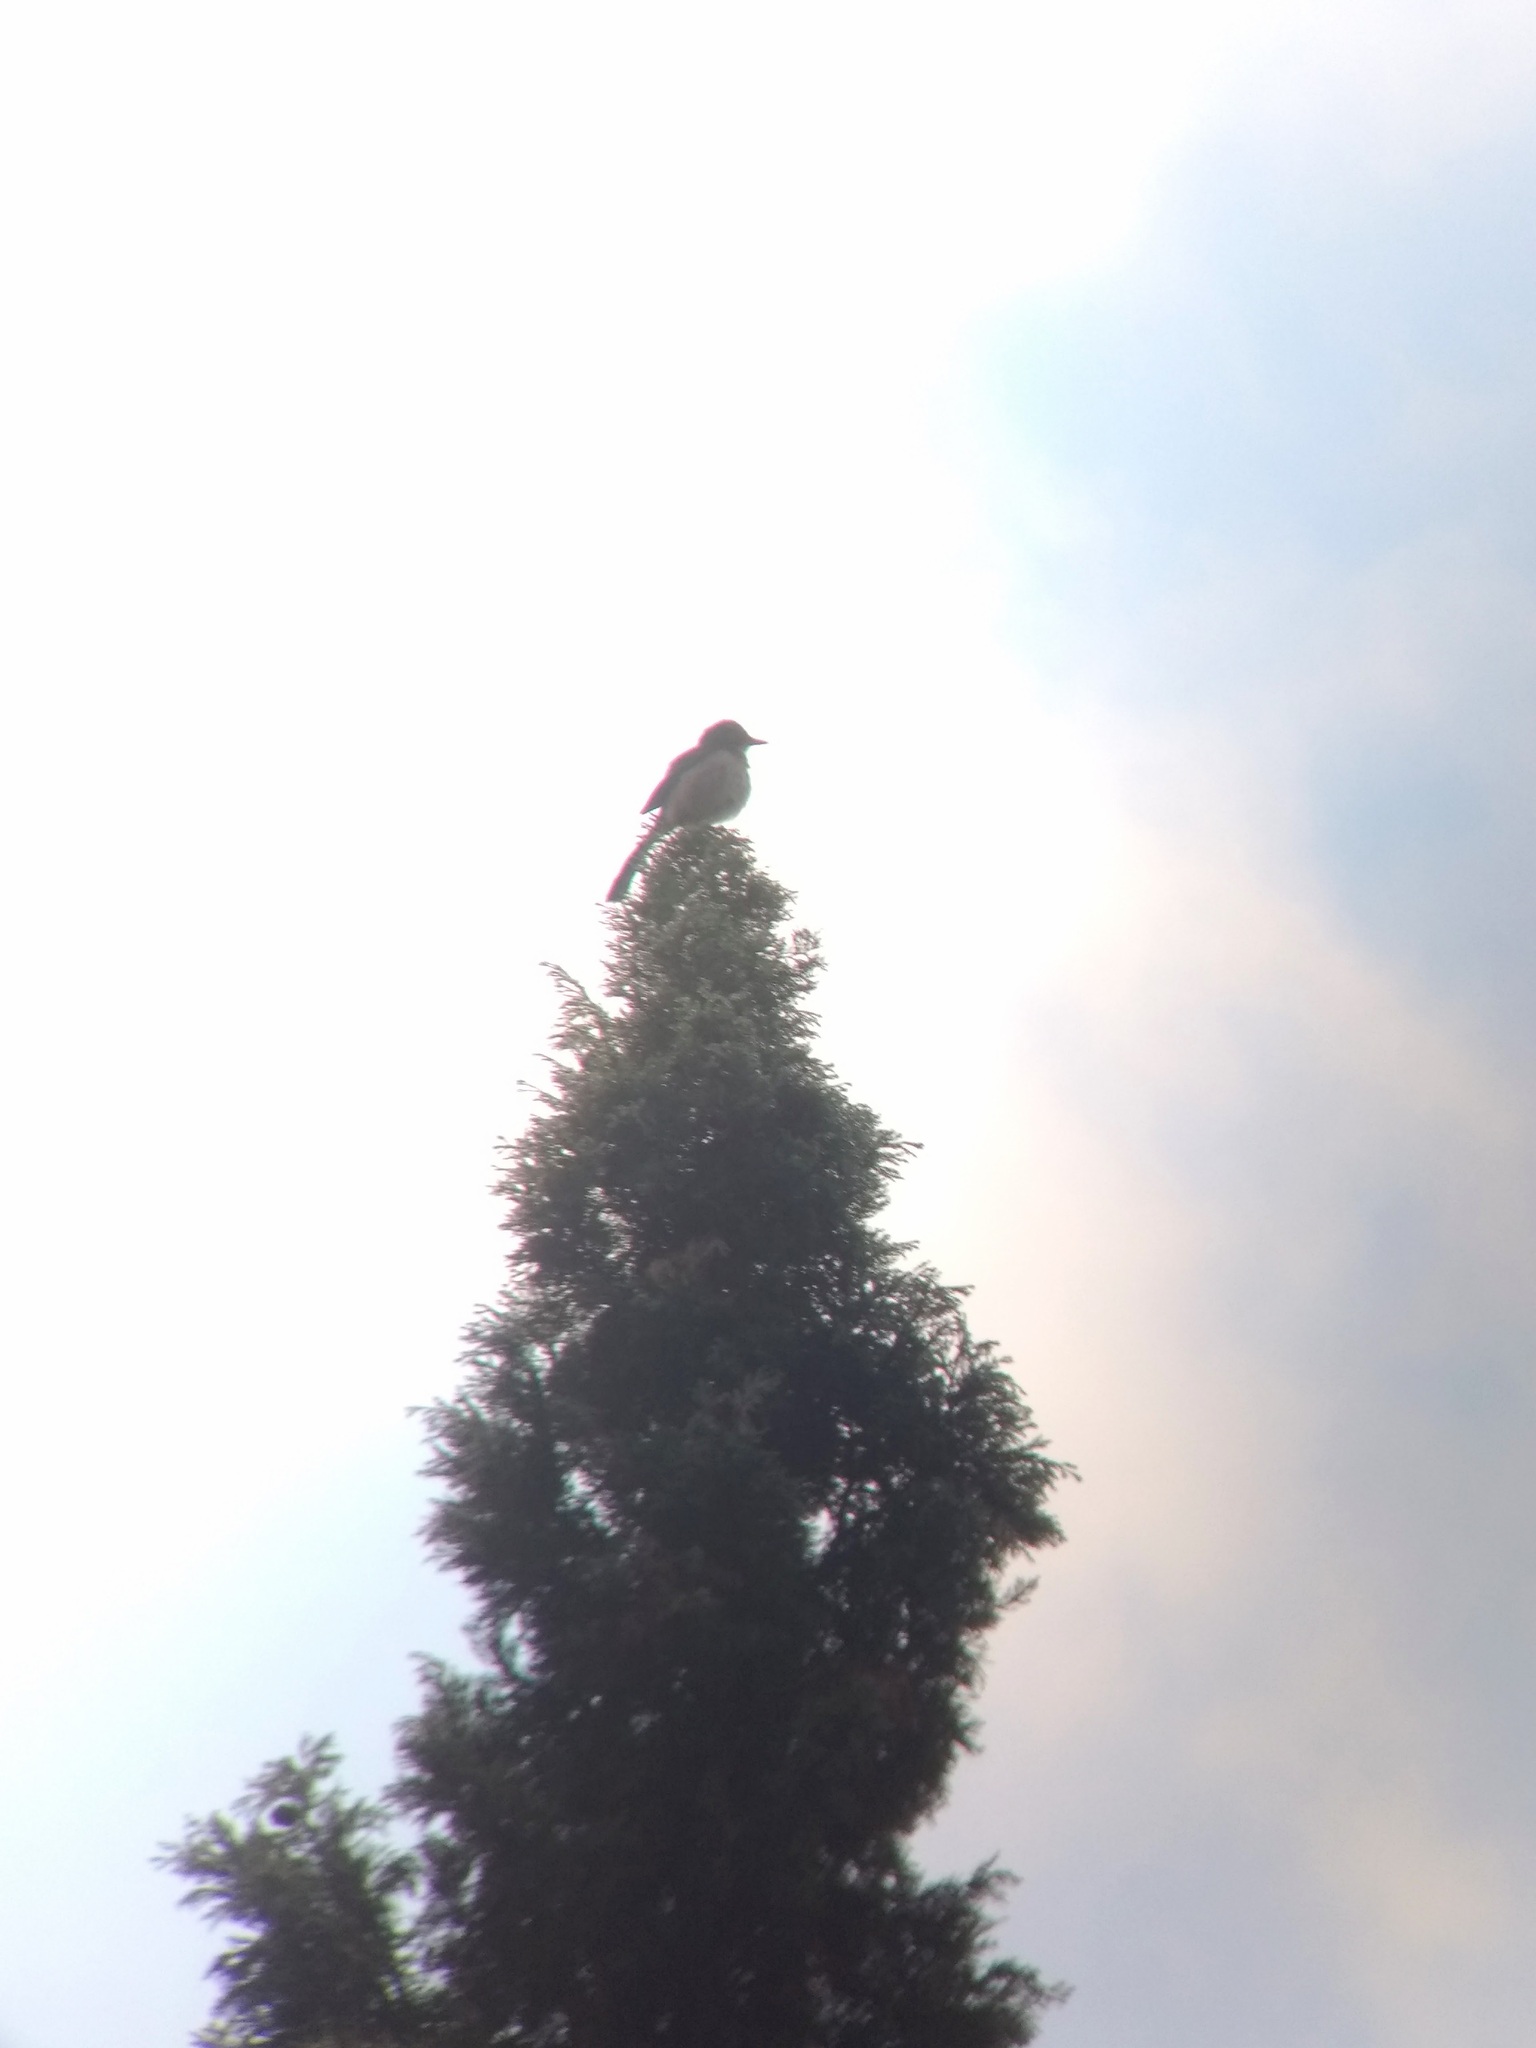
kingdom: Animalia
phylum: Chordata
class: Aves
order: Passeriformes
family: Corvidae
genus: Aphelocoma
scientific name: Aphelocoma californica
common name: California scrub-jay
